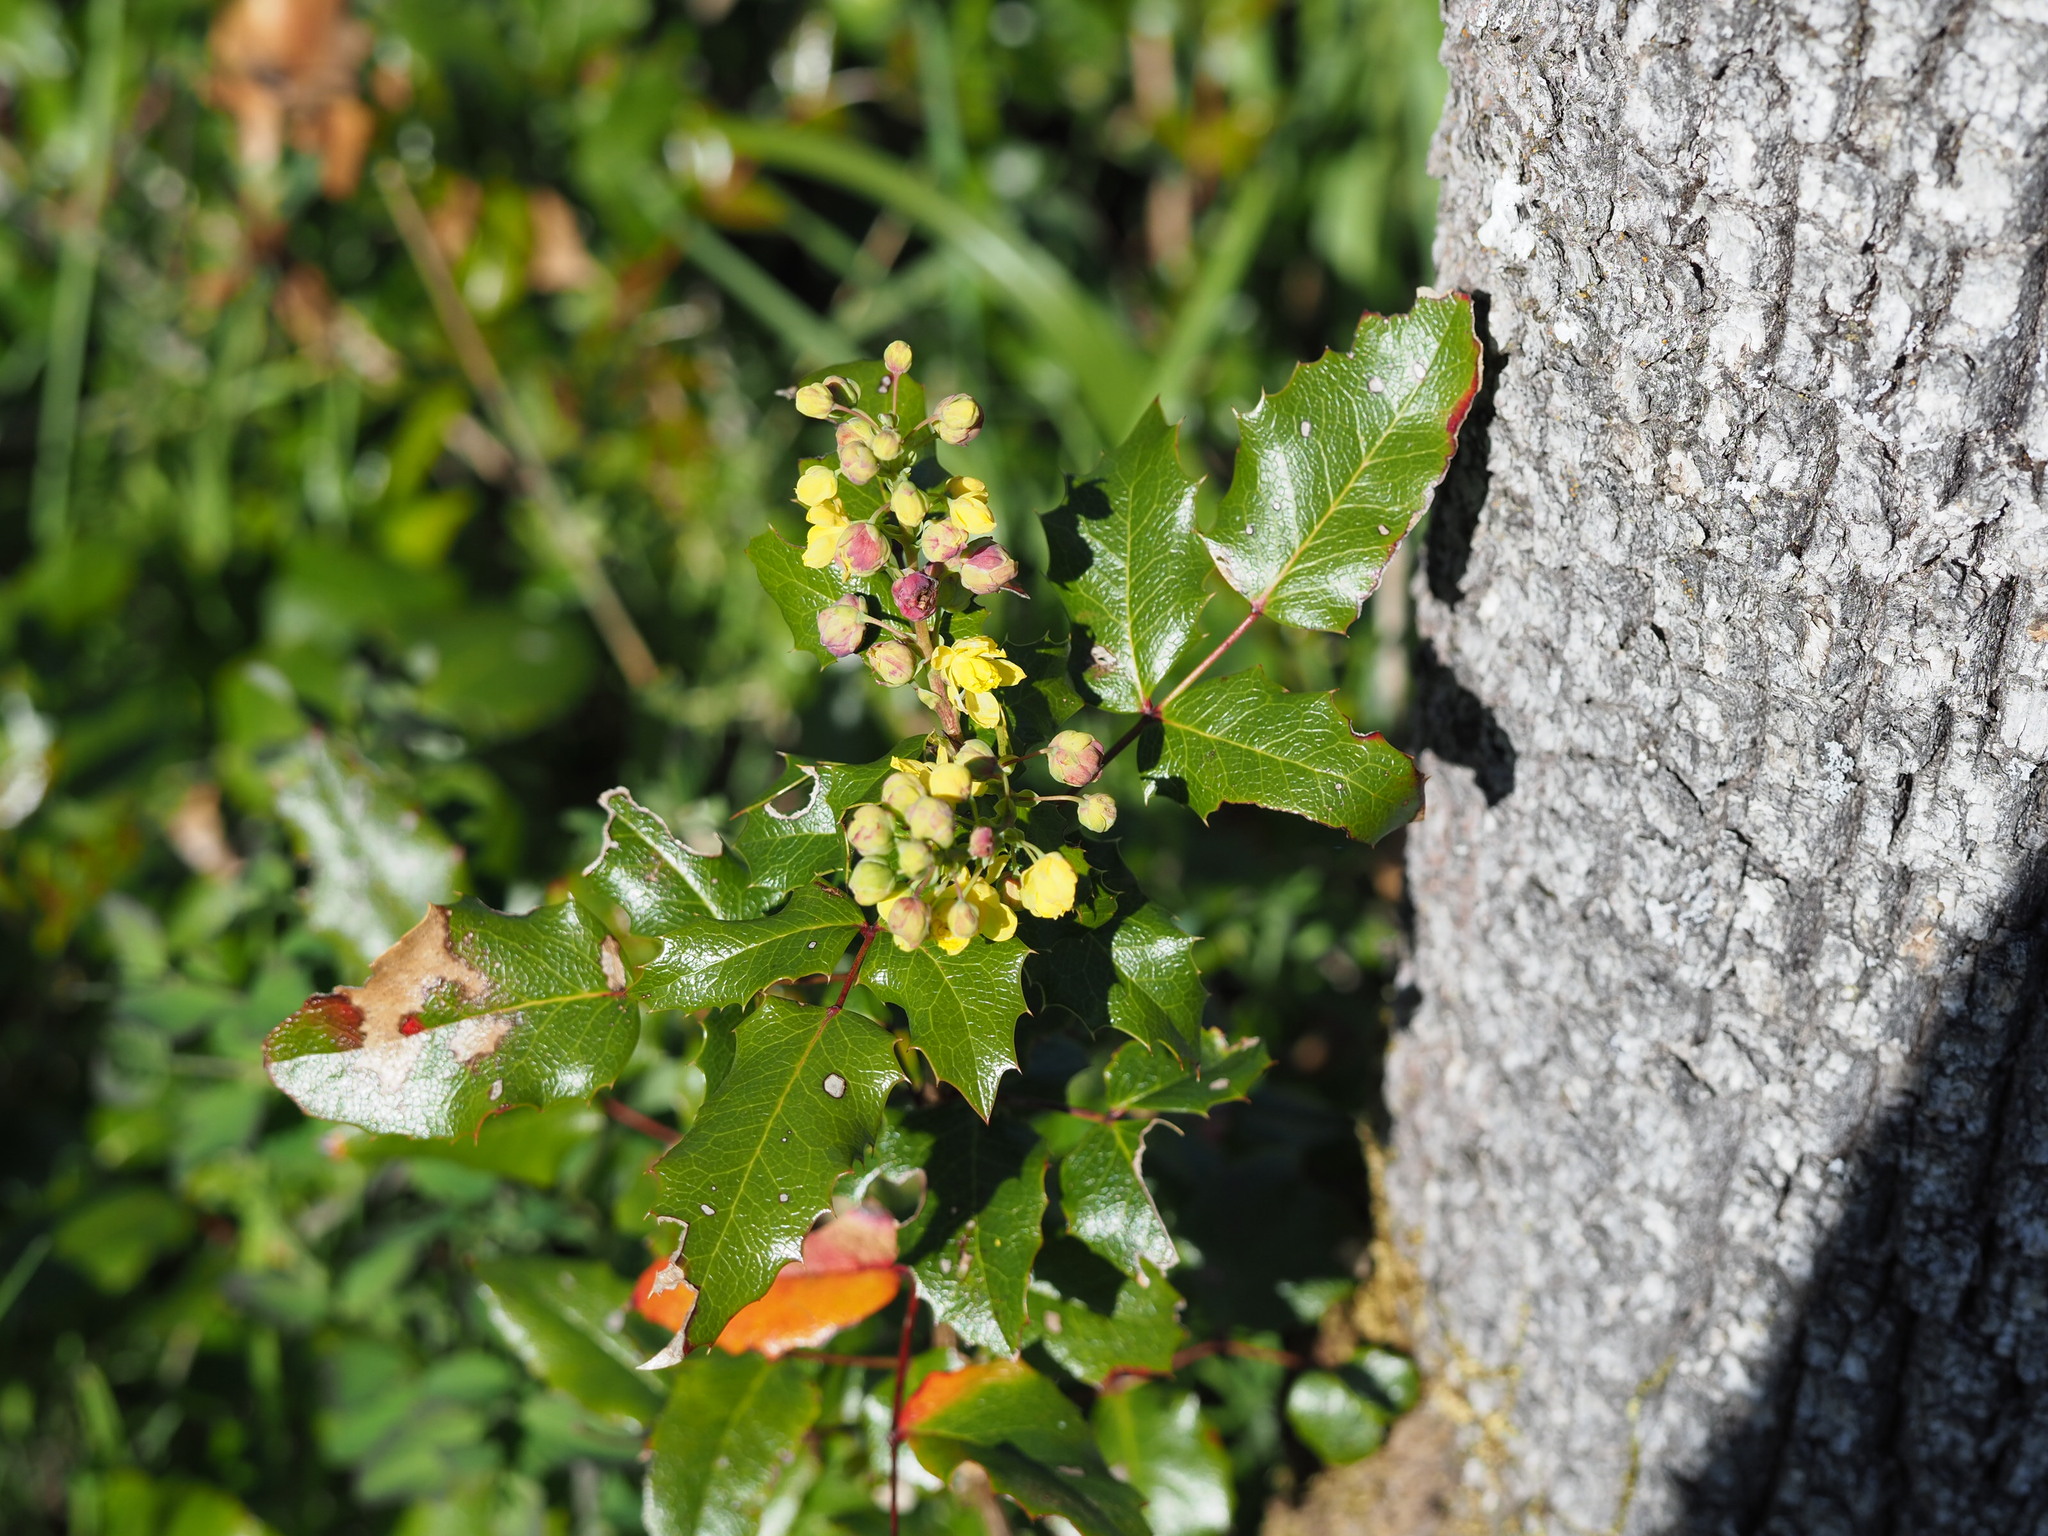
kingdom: Plantae
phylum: Tracheophyta
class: Magnoliopsida
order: Ranunculales
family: Berberidaceae
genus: Mahonia
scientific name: Mahonia aquifolium
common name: Oregon-grape
